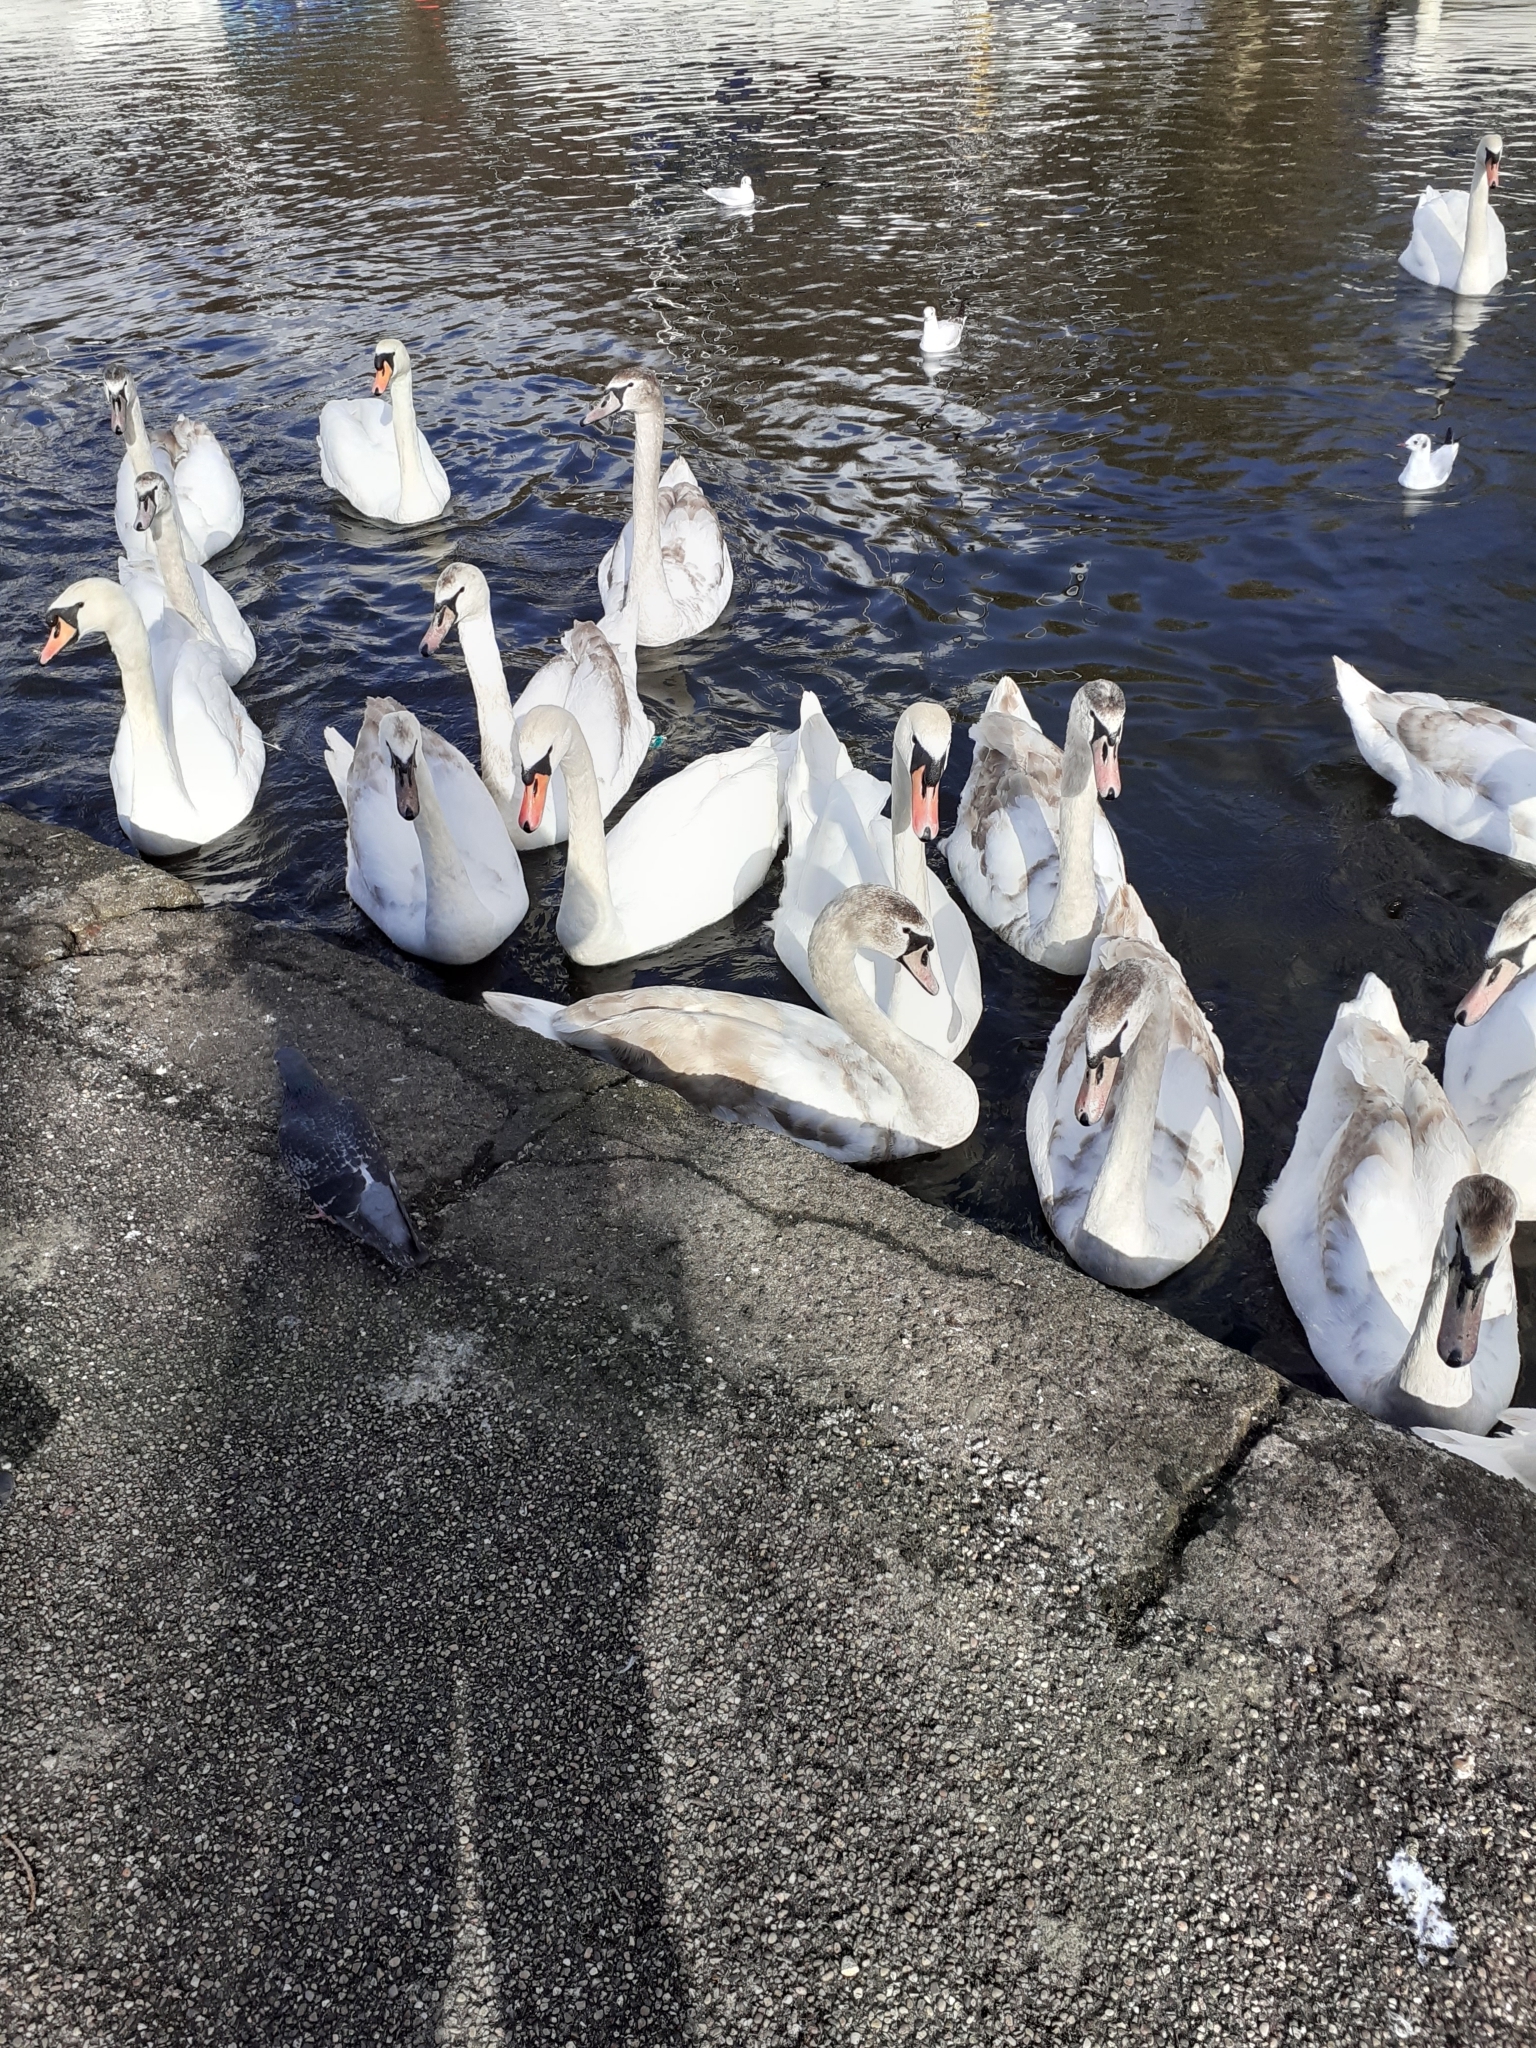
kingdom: Animalia
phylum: Chordata
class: Aves
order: Anseriformes
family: Anatidae
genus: Cygnus
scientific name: Cygnus olor
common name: Mute swan
